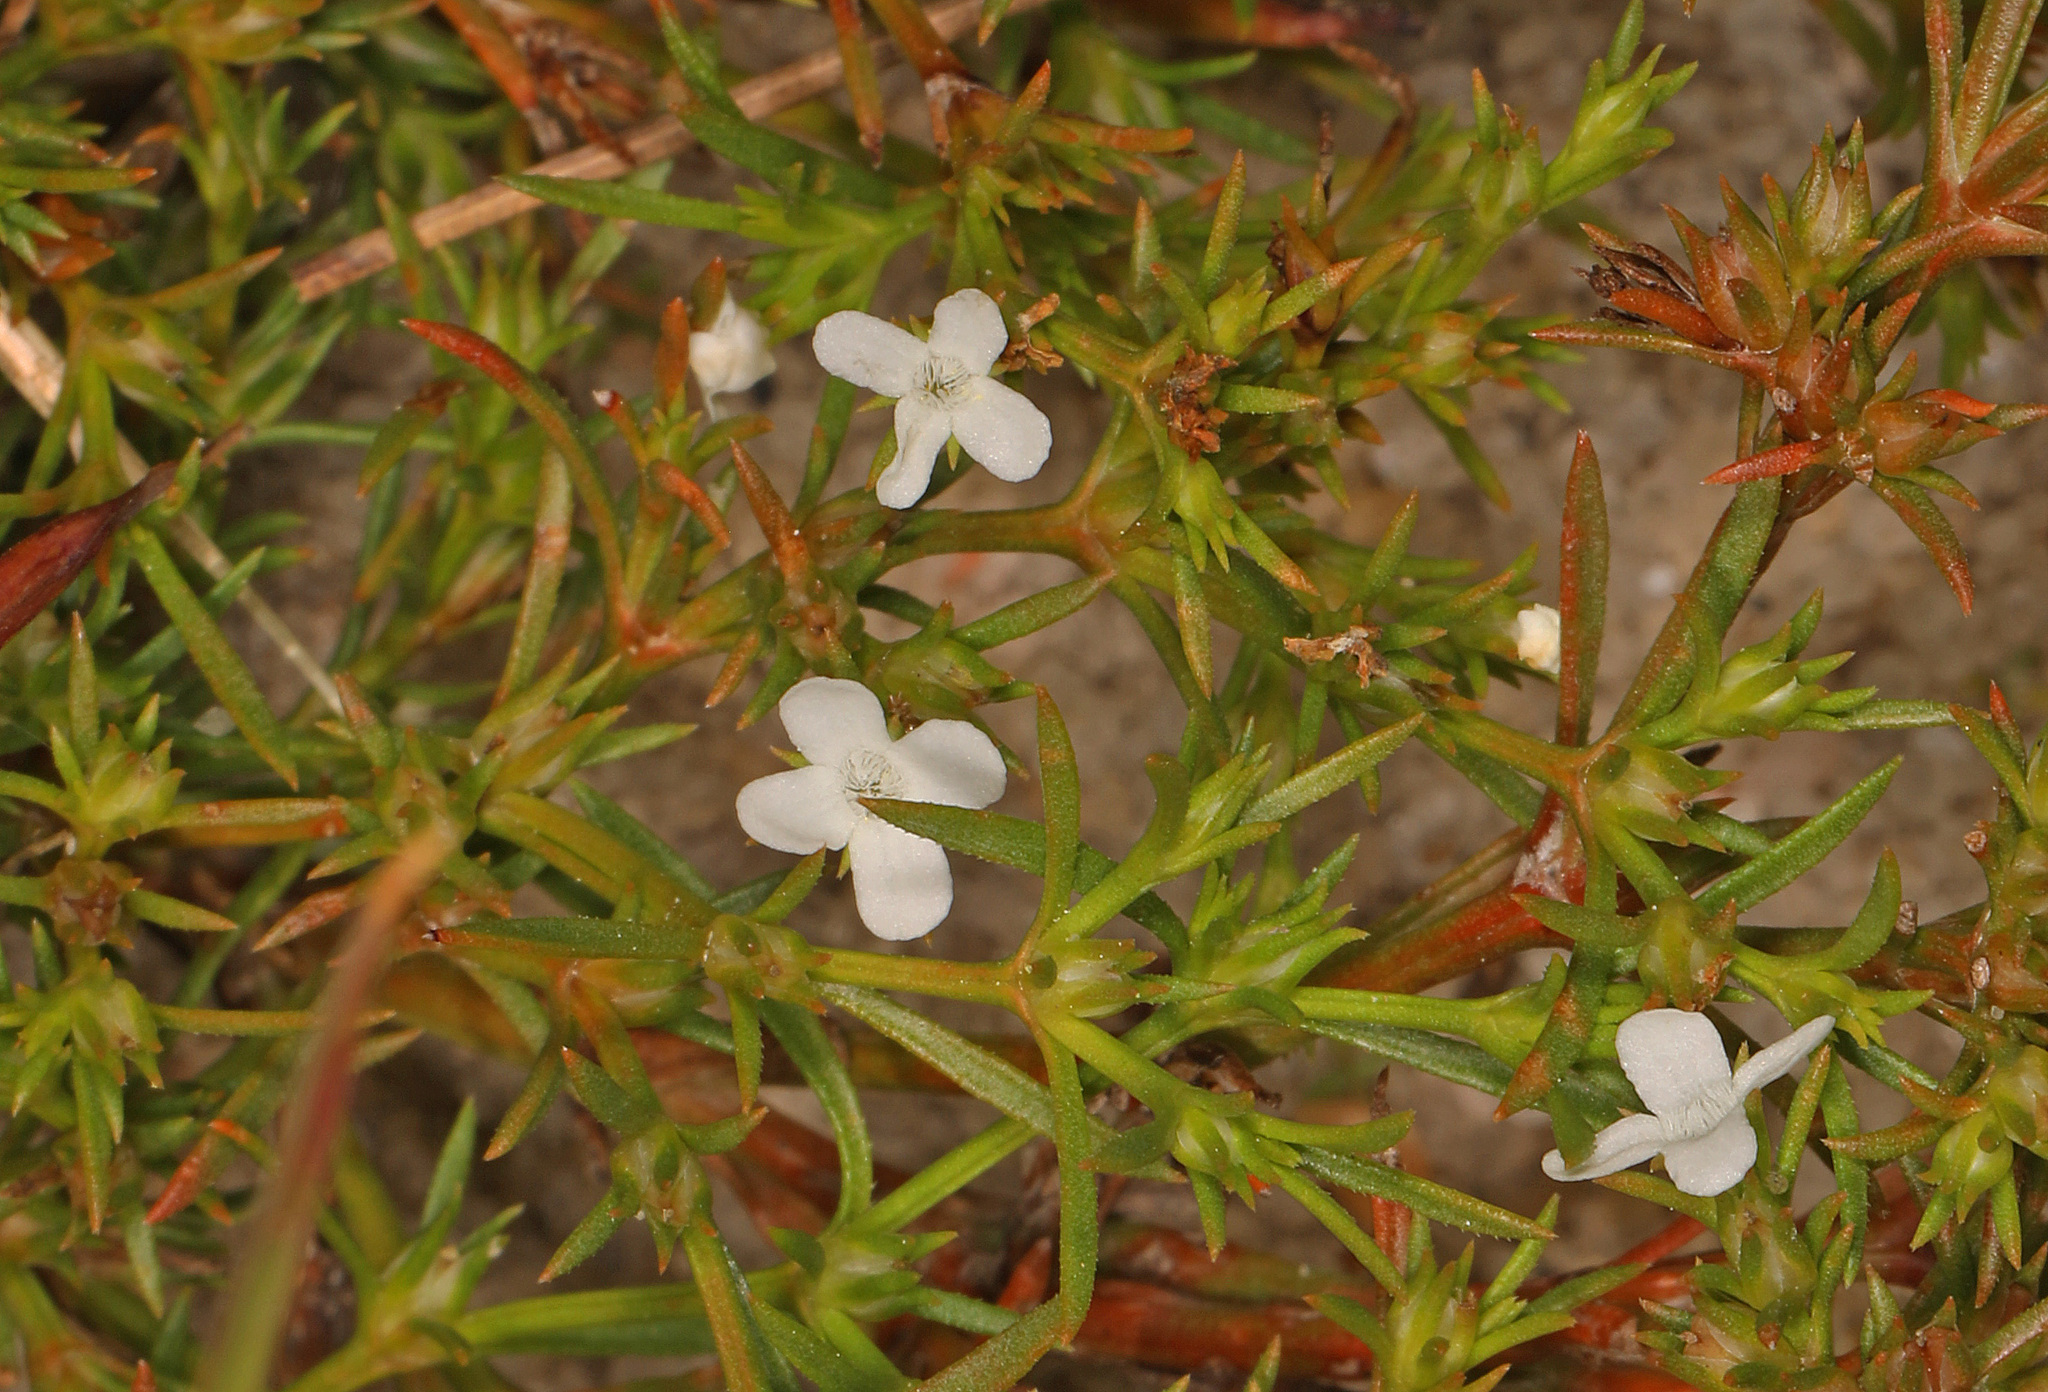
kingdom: Plantae
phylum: Tracheophyta
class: Magnoliopsida
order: Lamiales
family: Tetrachondraceae
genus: Polypremum
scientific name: Polypremum procumbens
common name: Juniper-leaf
